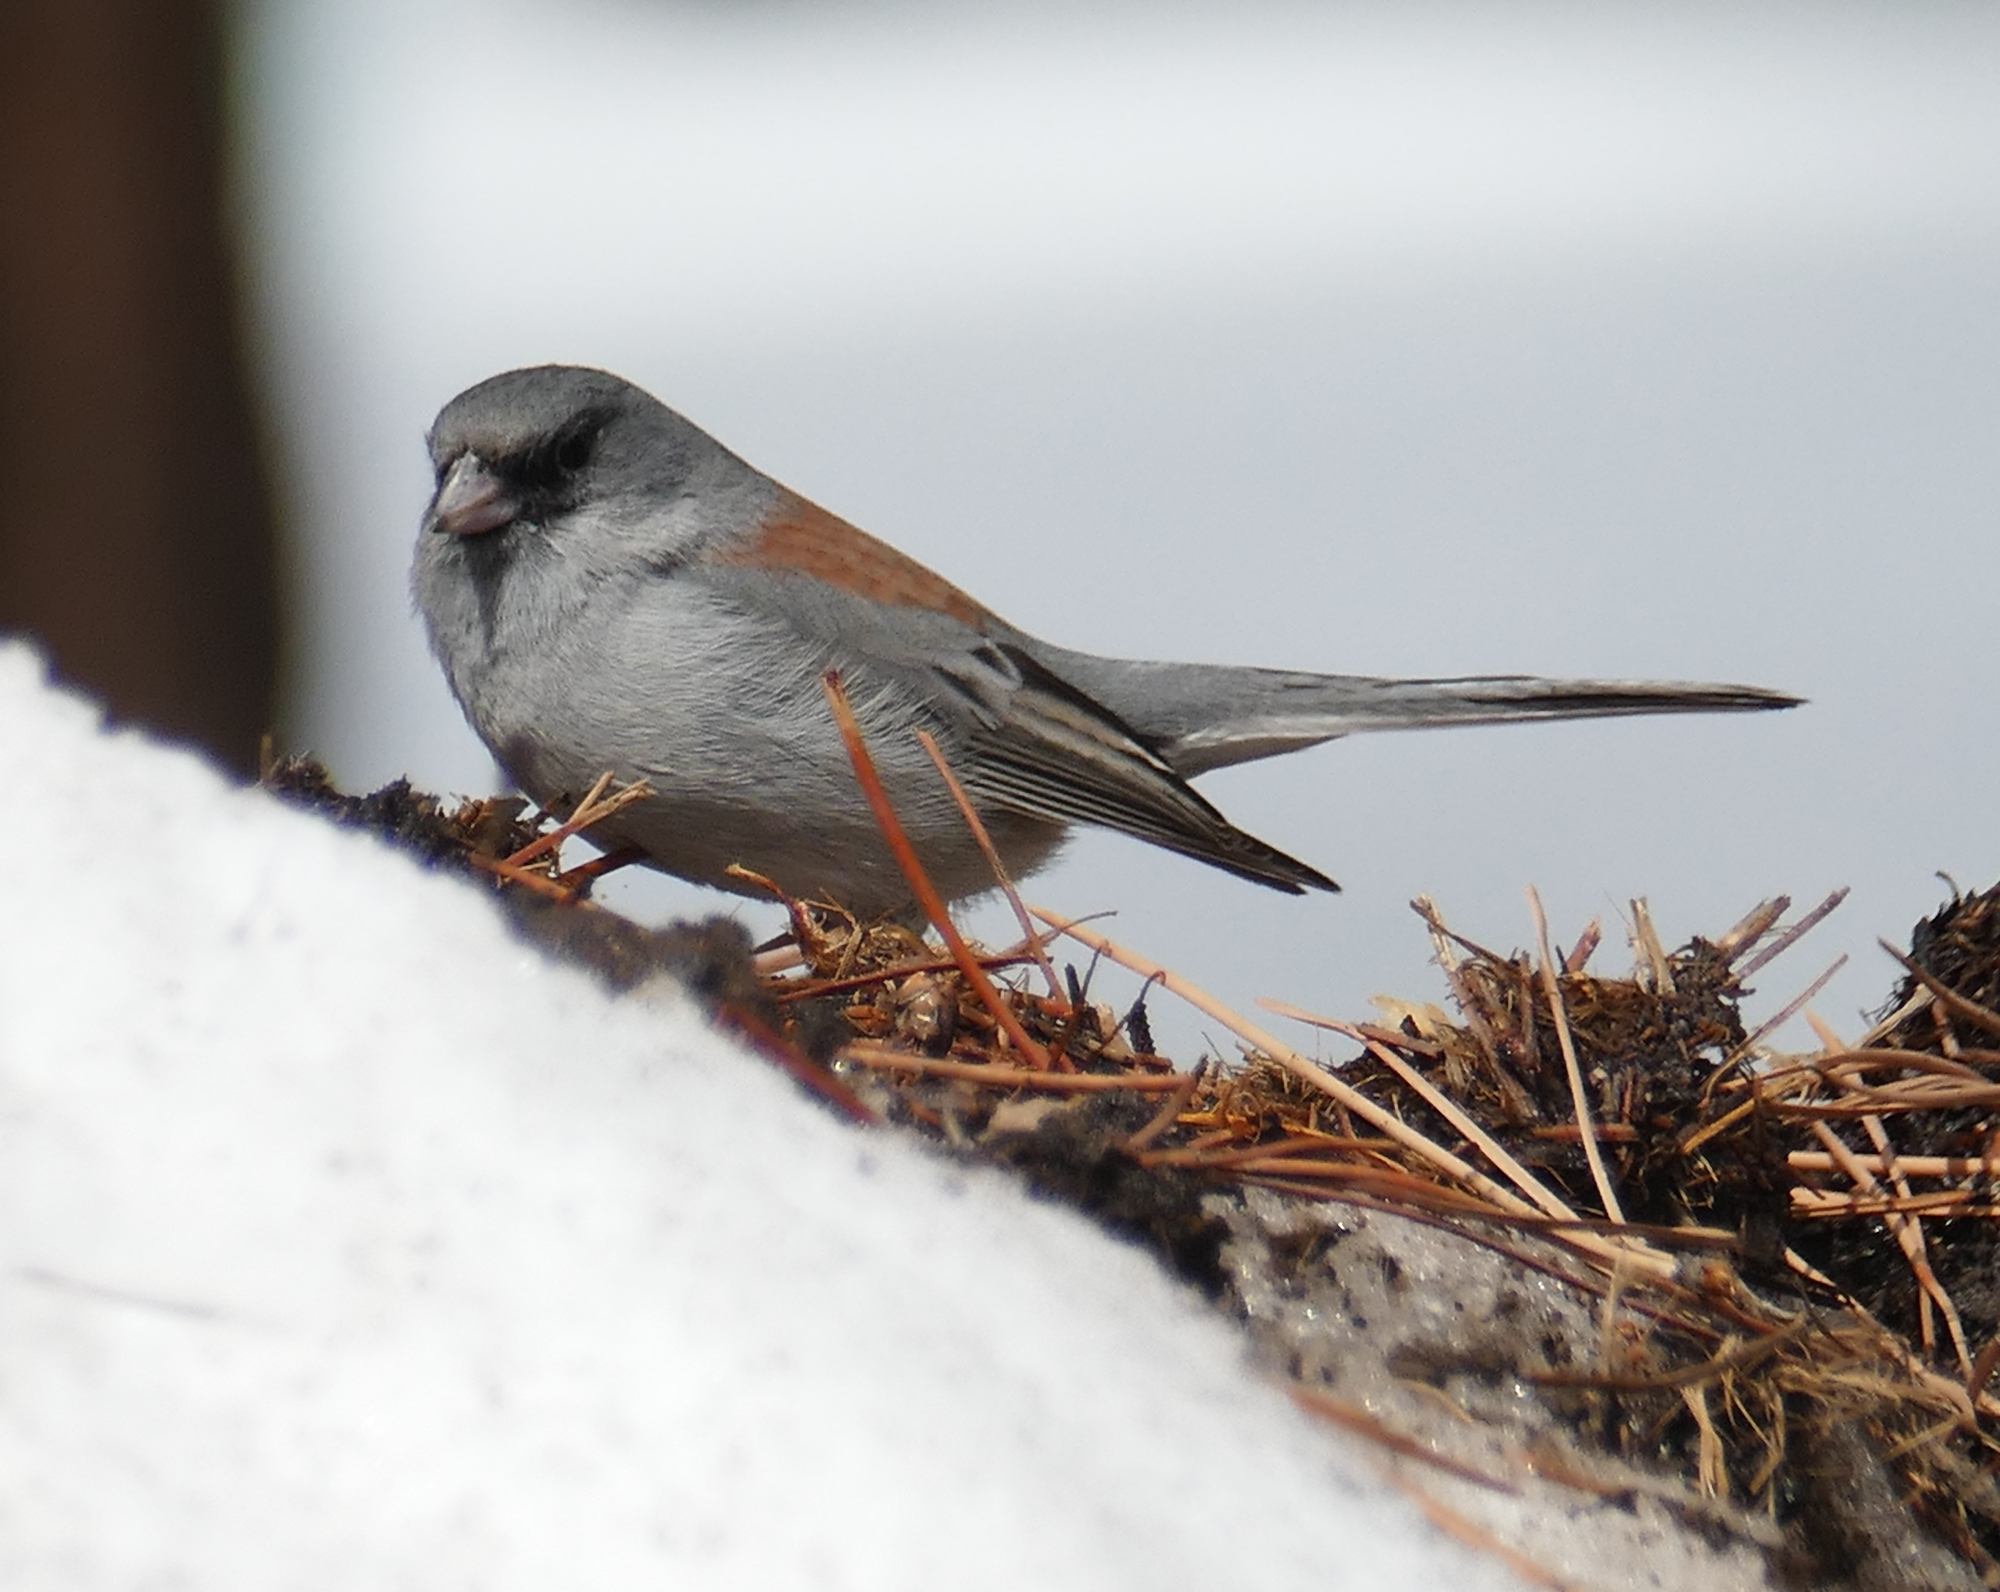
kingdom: Animalia
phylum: Chordata
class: Aves
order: Passeriformes
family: Passerellidae
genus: Junco
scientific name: Junco hyemalis
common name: Dark-eyed junco
